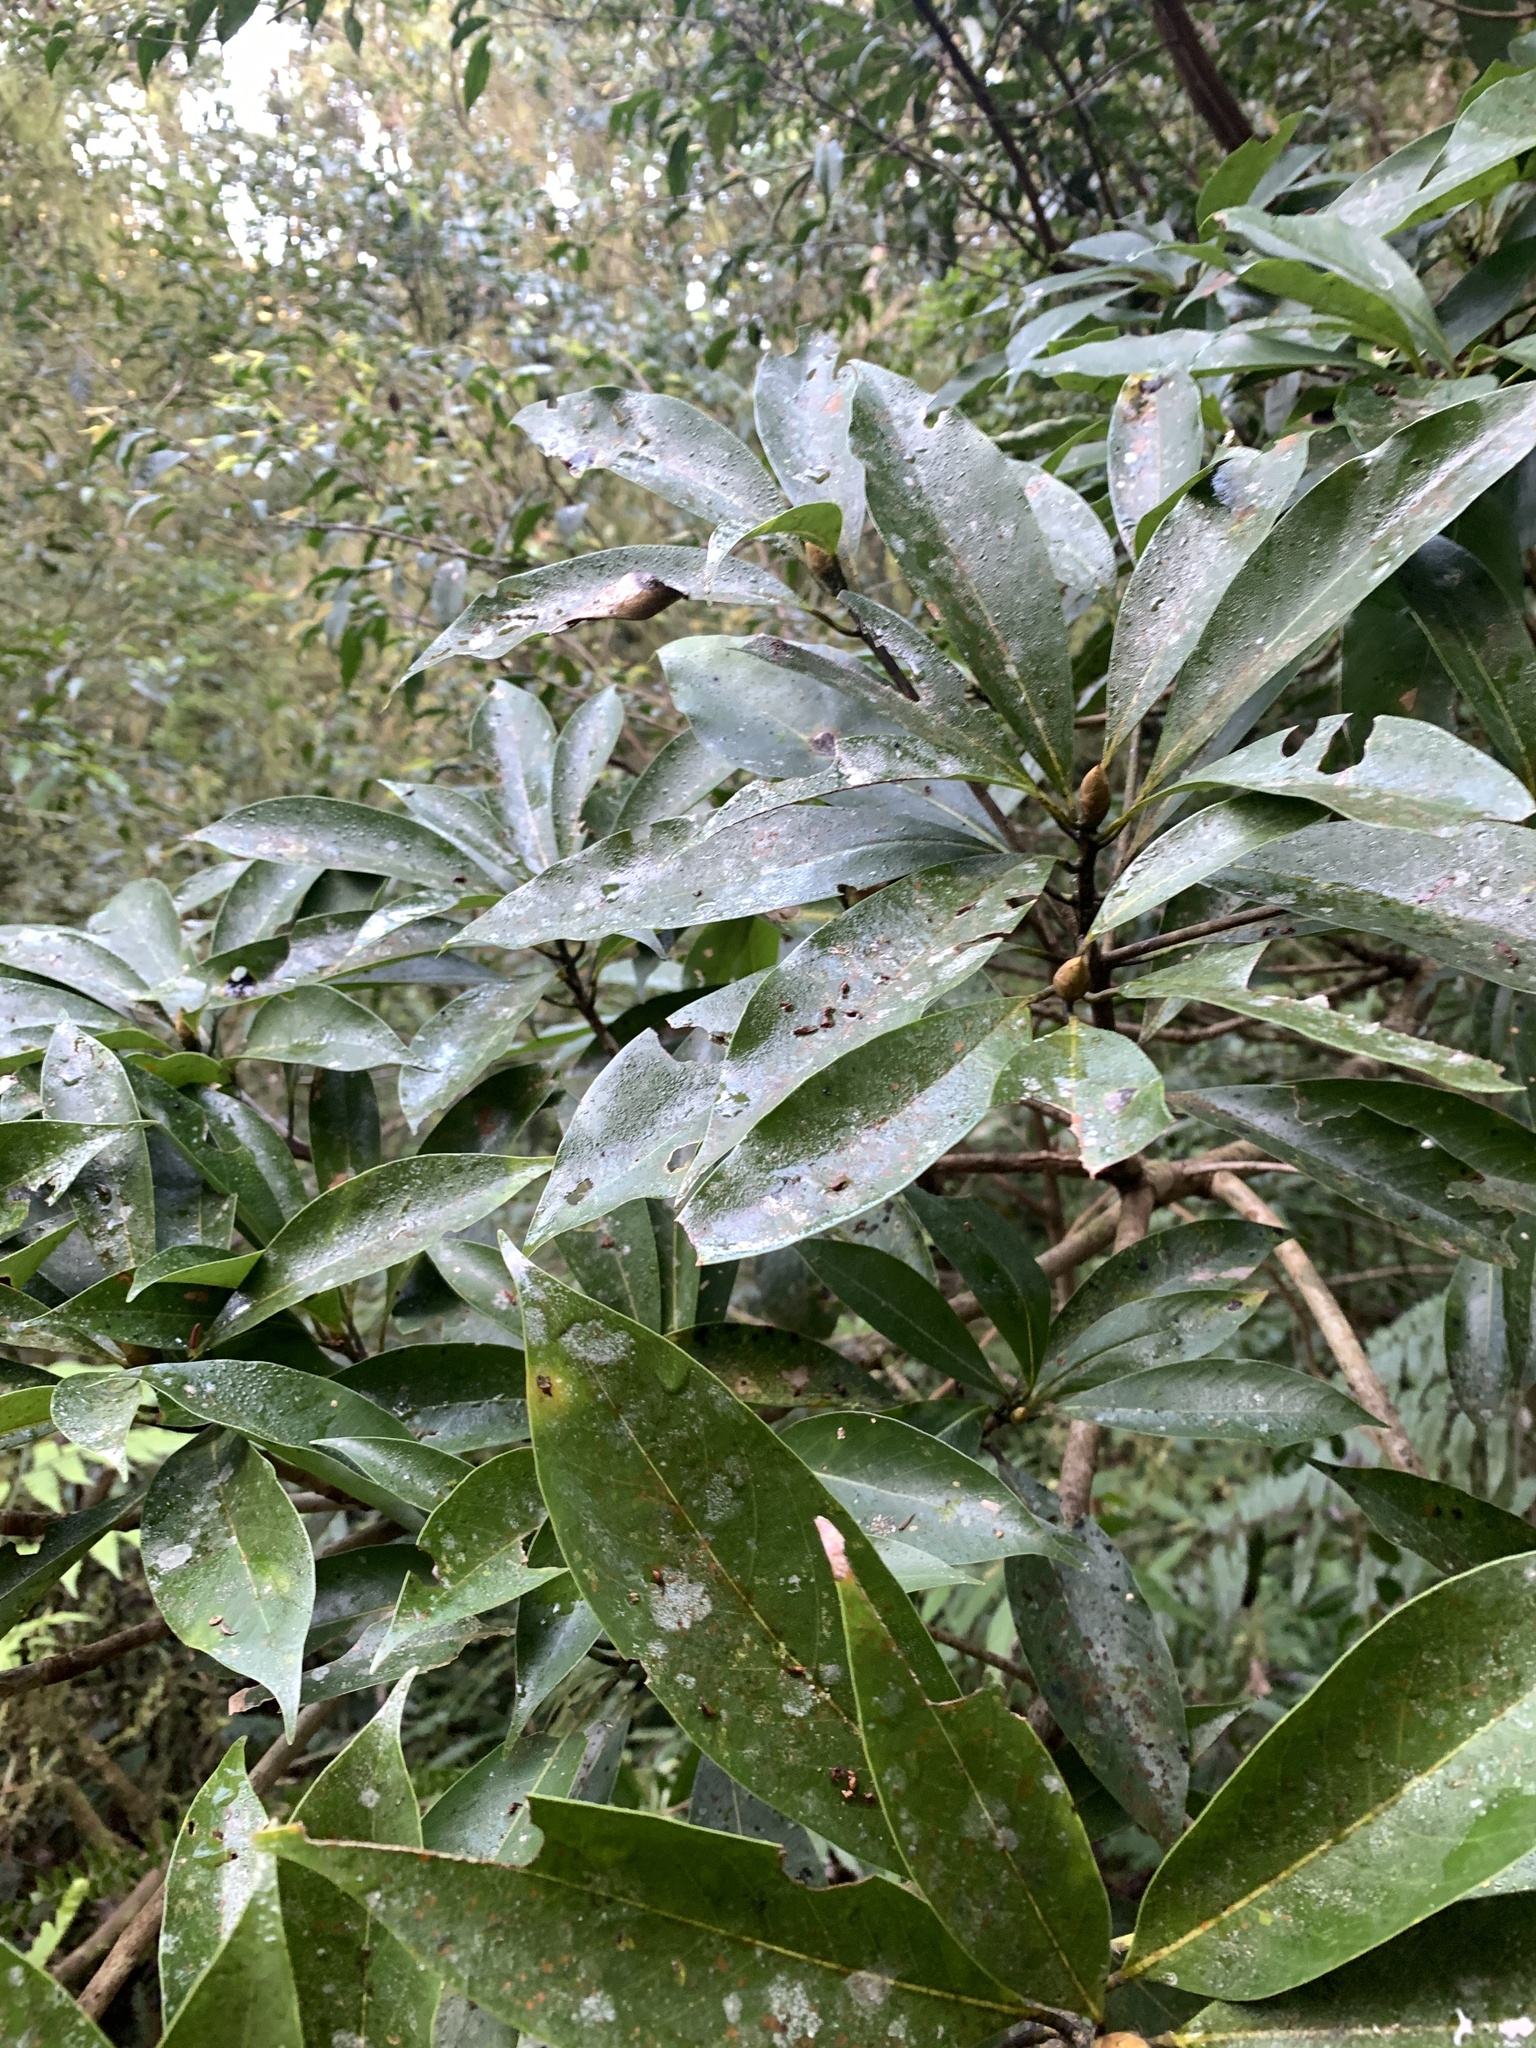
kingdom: Plantae
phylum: Tracheophyta
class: Magnoliopsida
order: Laurales
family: Lauraceae
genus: Machilus
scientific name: Machilus japonica
